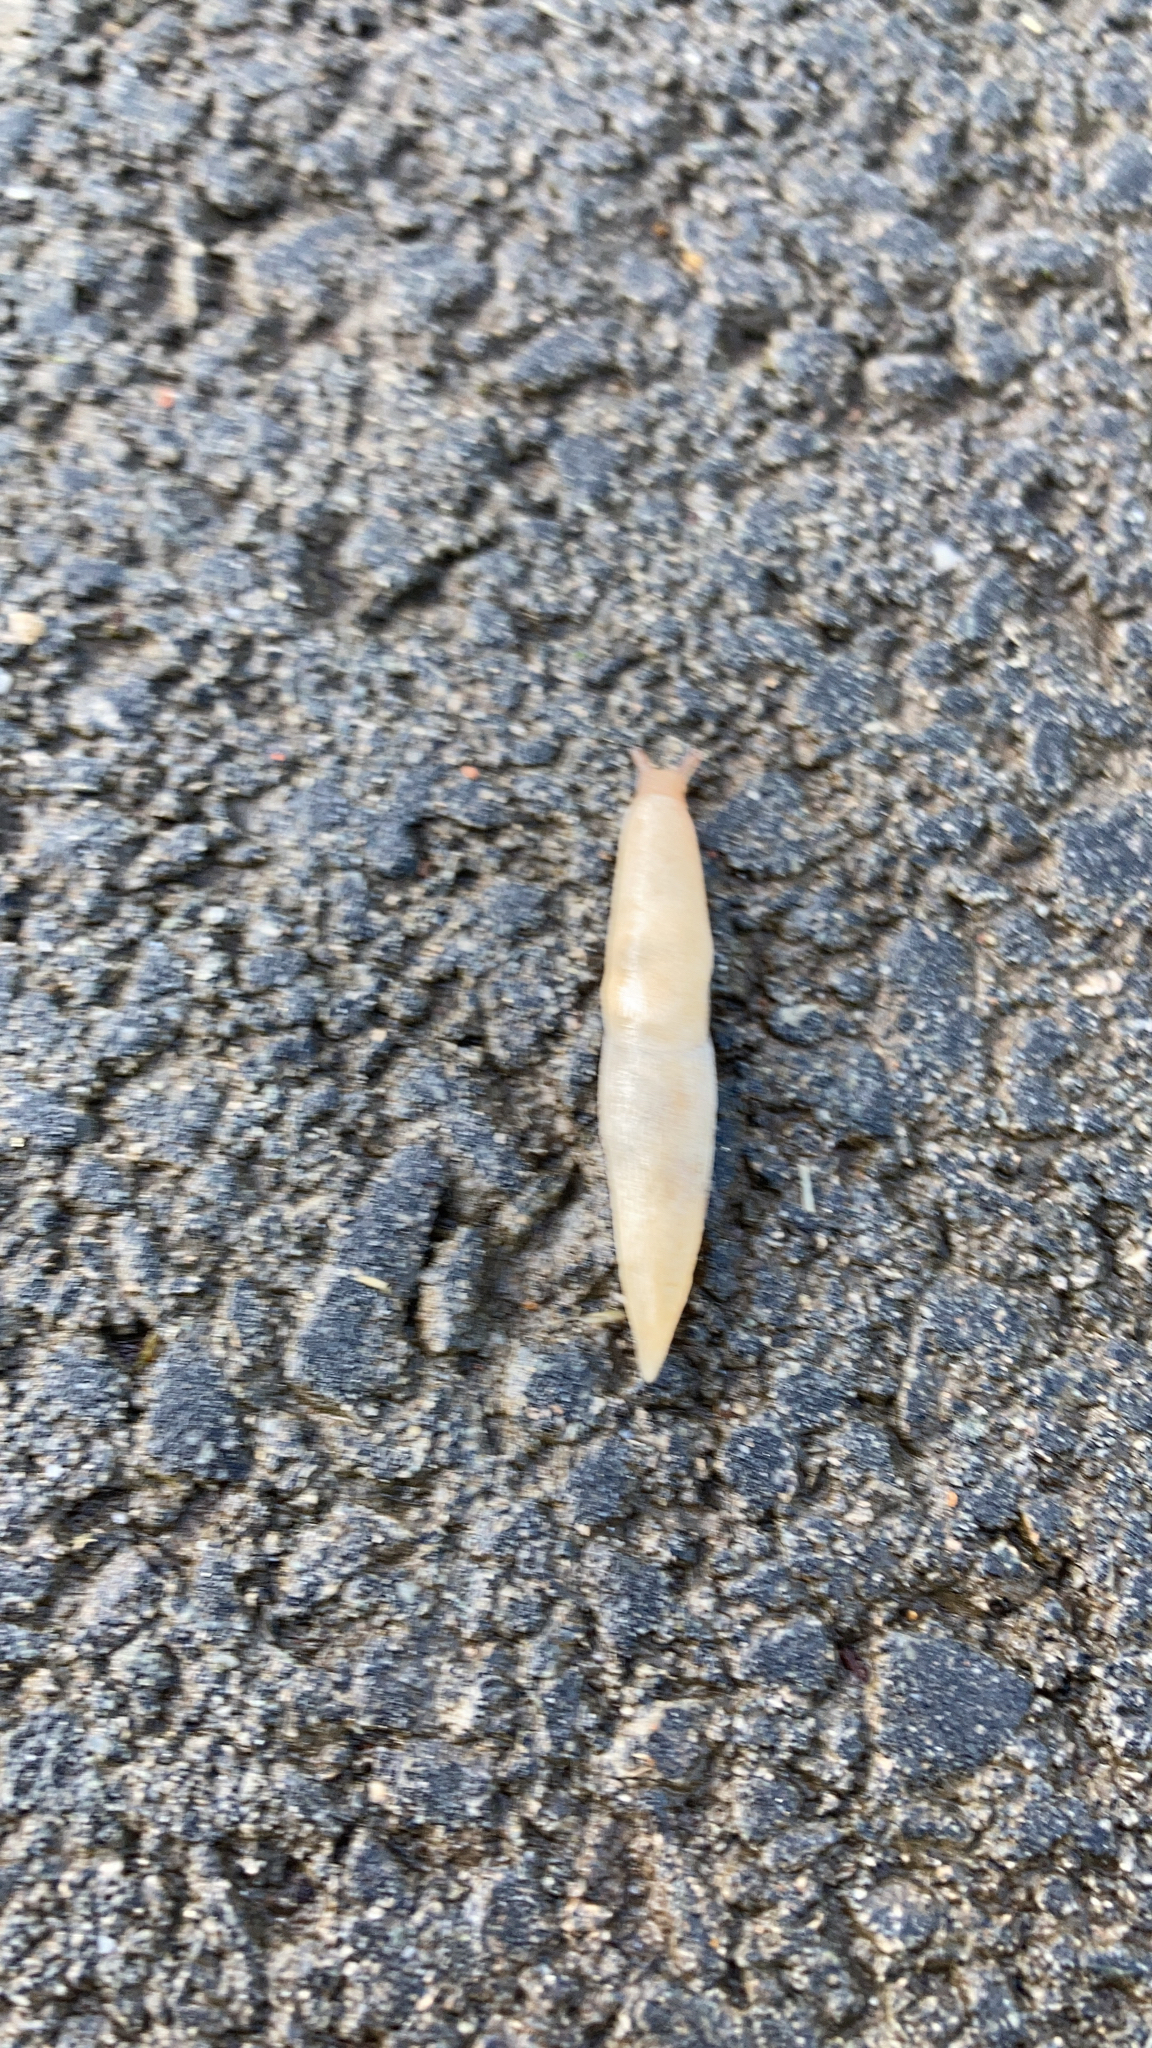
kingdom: Animalia
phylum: Mollusca
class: Gastropoda
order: Stylommatophora
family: Agriolimacidae
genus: Deroceras
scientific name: Deroceras reticulatum
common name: Gray field slug
